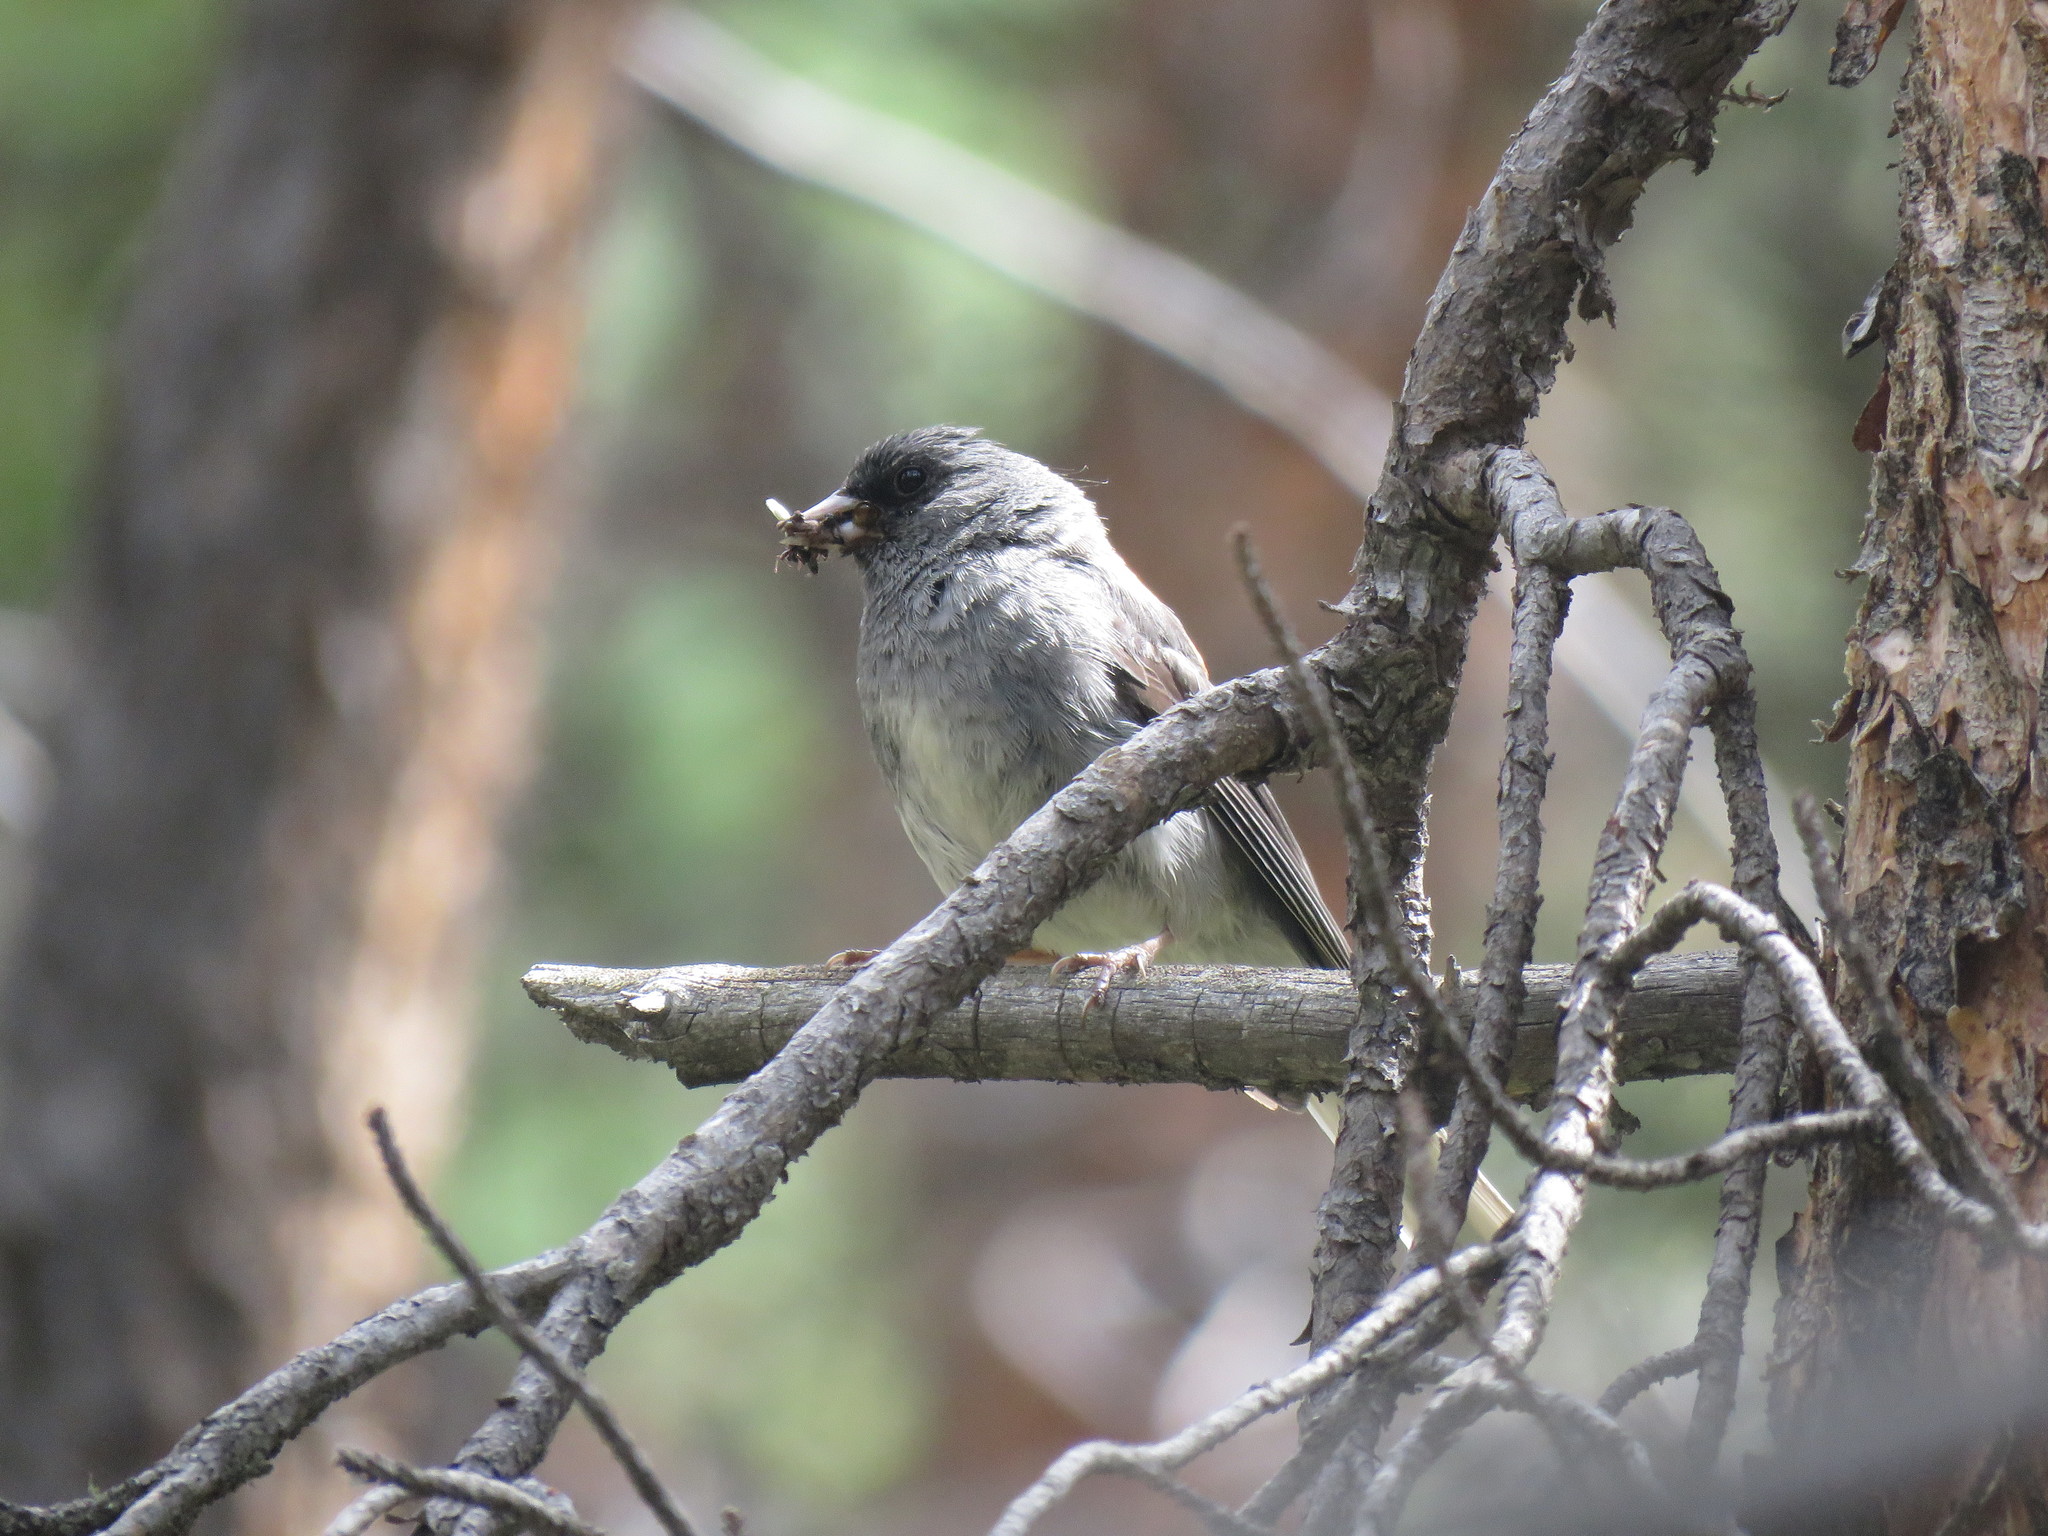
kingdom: Animalia
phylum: Chordata
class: Aves
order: Passeriformes
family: Passerellidae
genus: Junco
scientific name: Junco hyemalis
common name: Dark-eyed junco
